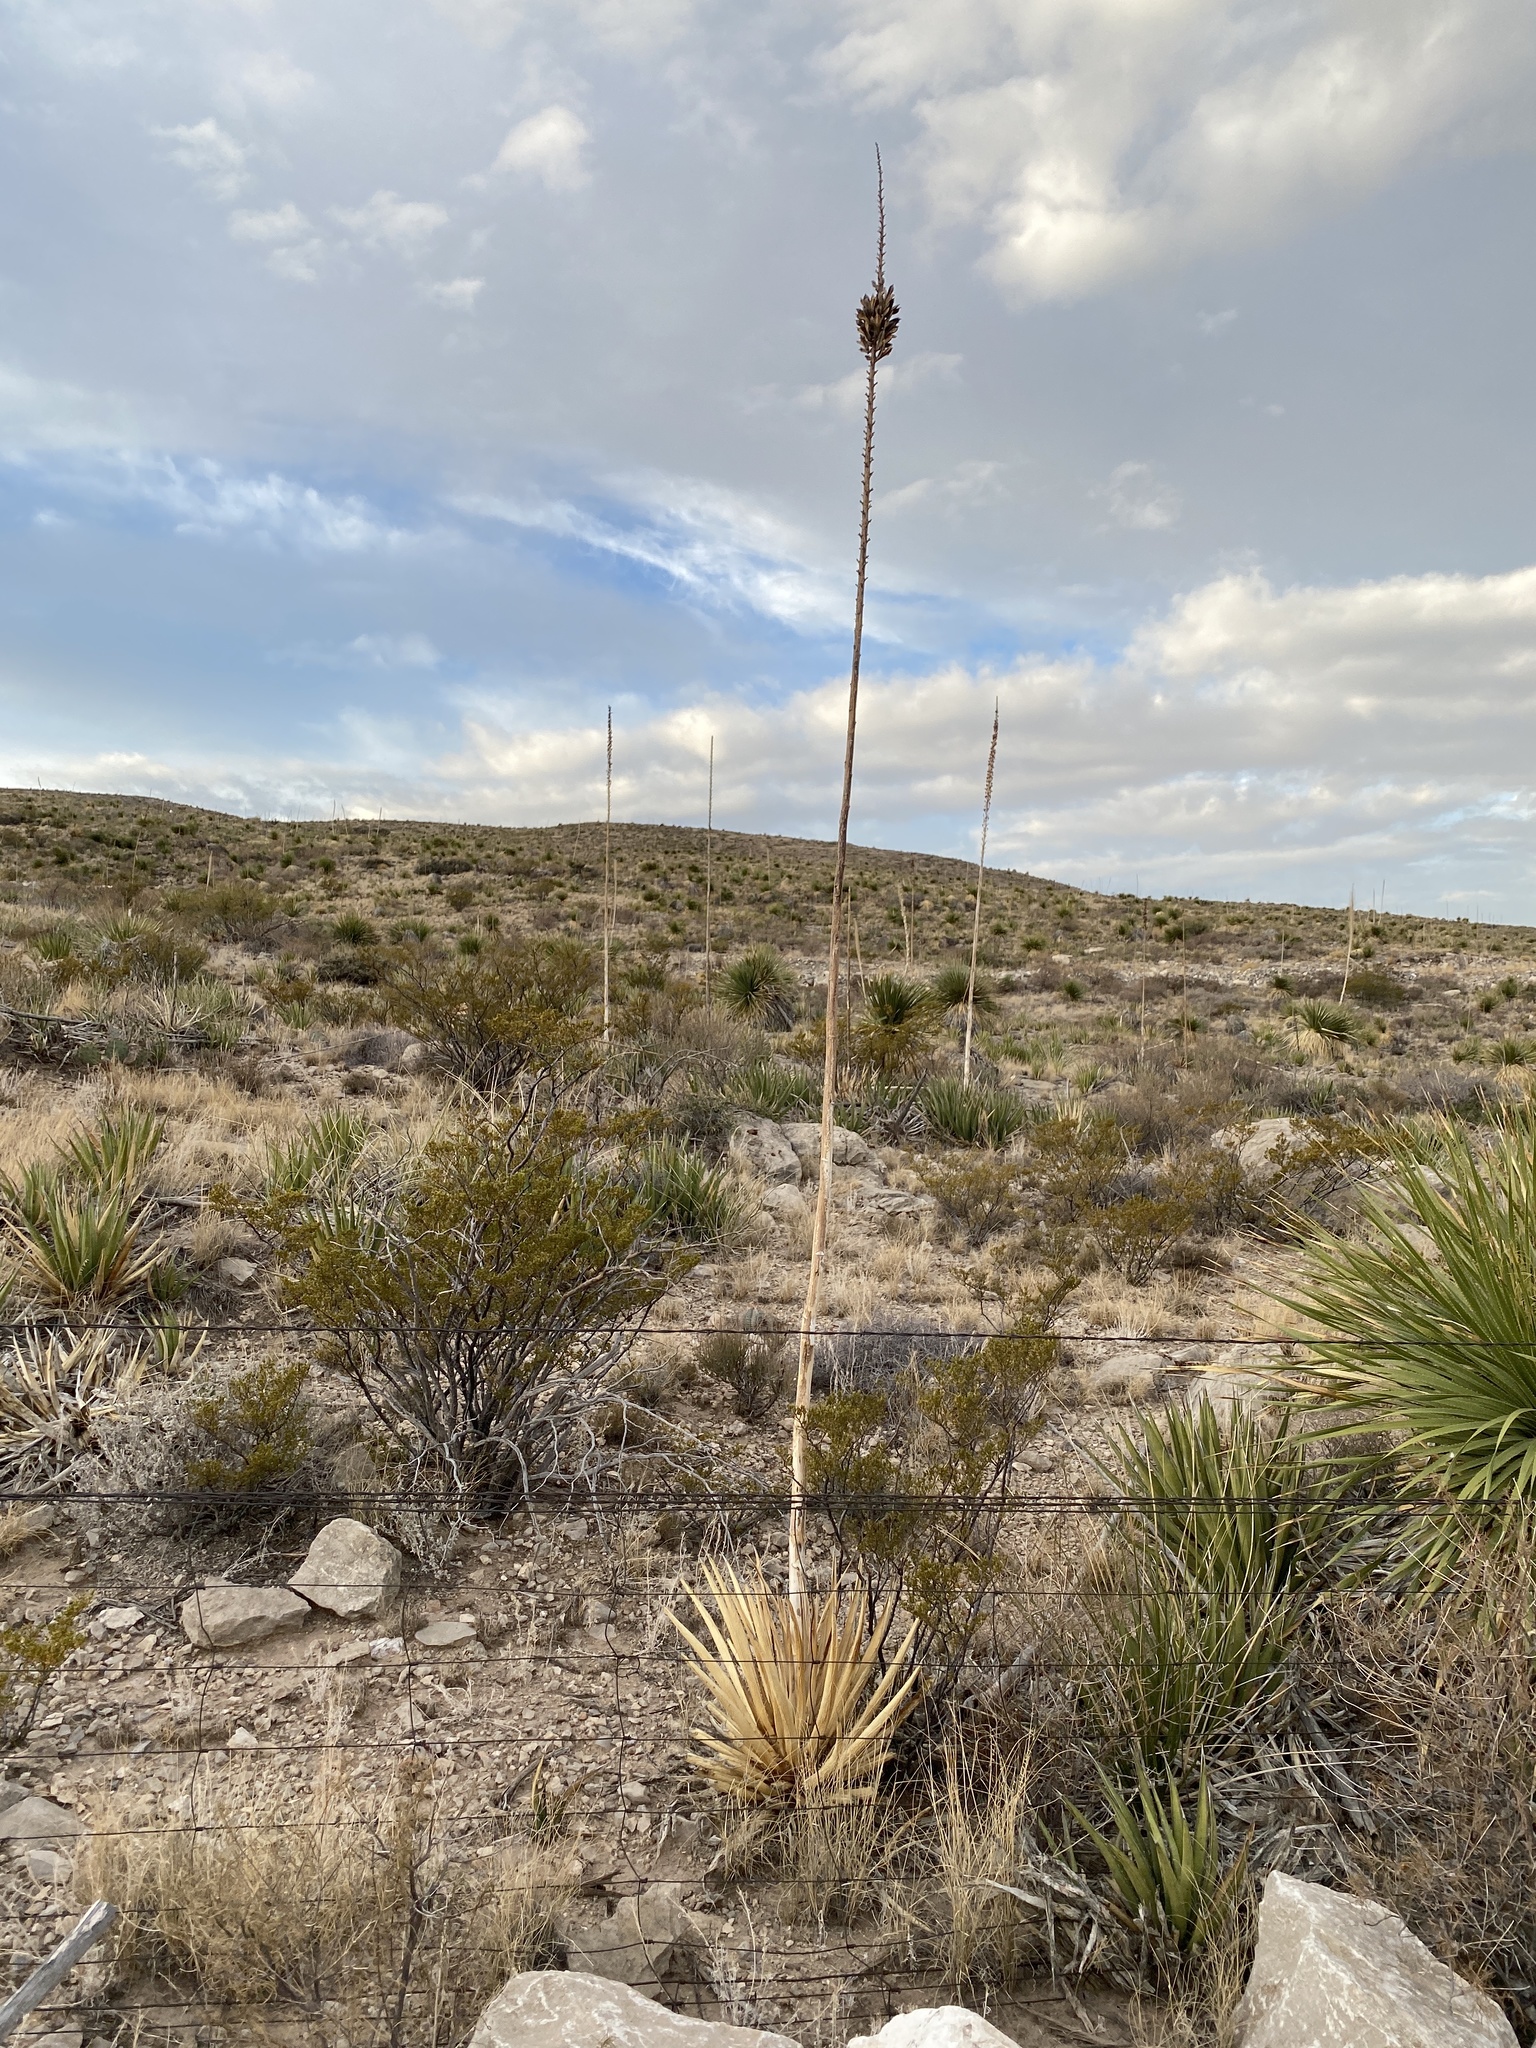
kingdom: Plantae
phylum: Tracheophyta
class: Liliopsida
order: Asparagales
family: Asparagaceae
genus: Agave
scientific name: Agave lechuguilla
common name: Lecheguilla agave
